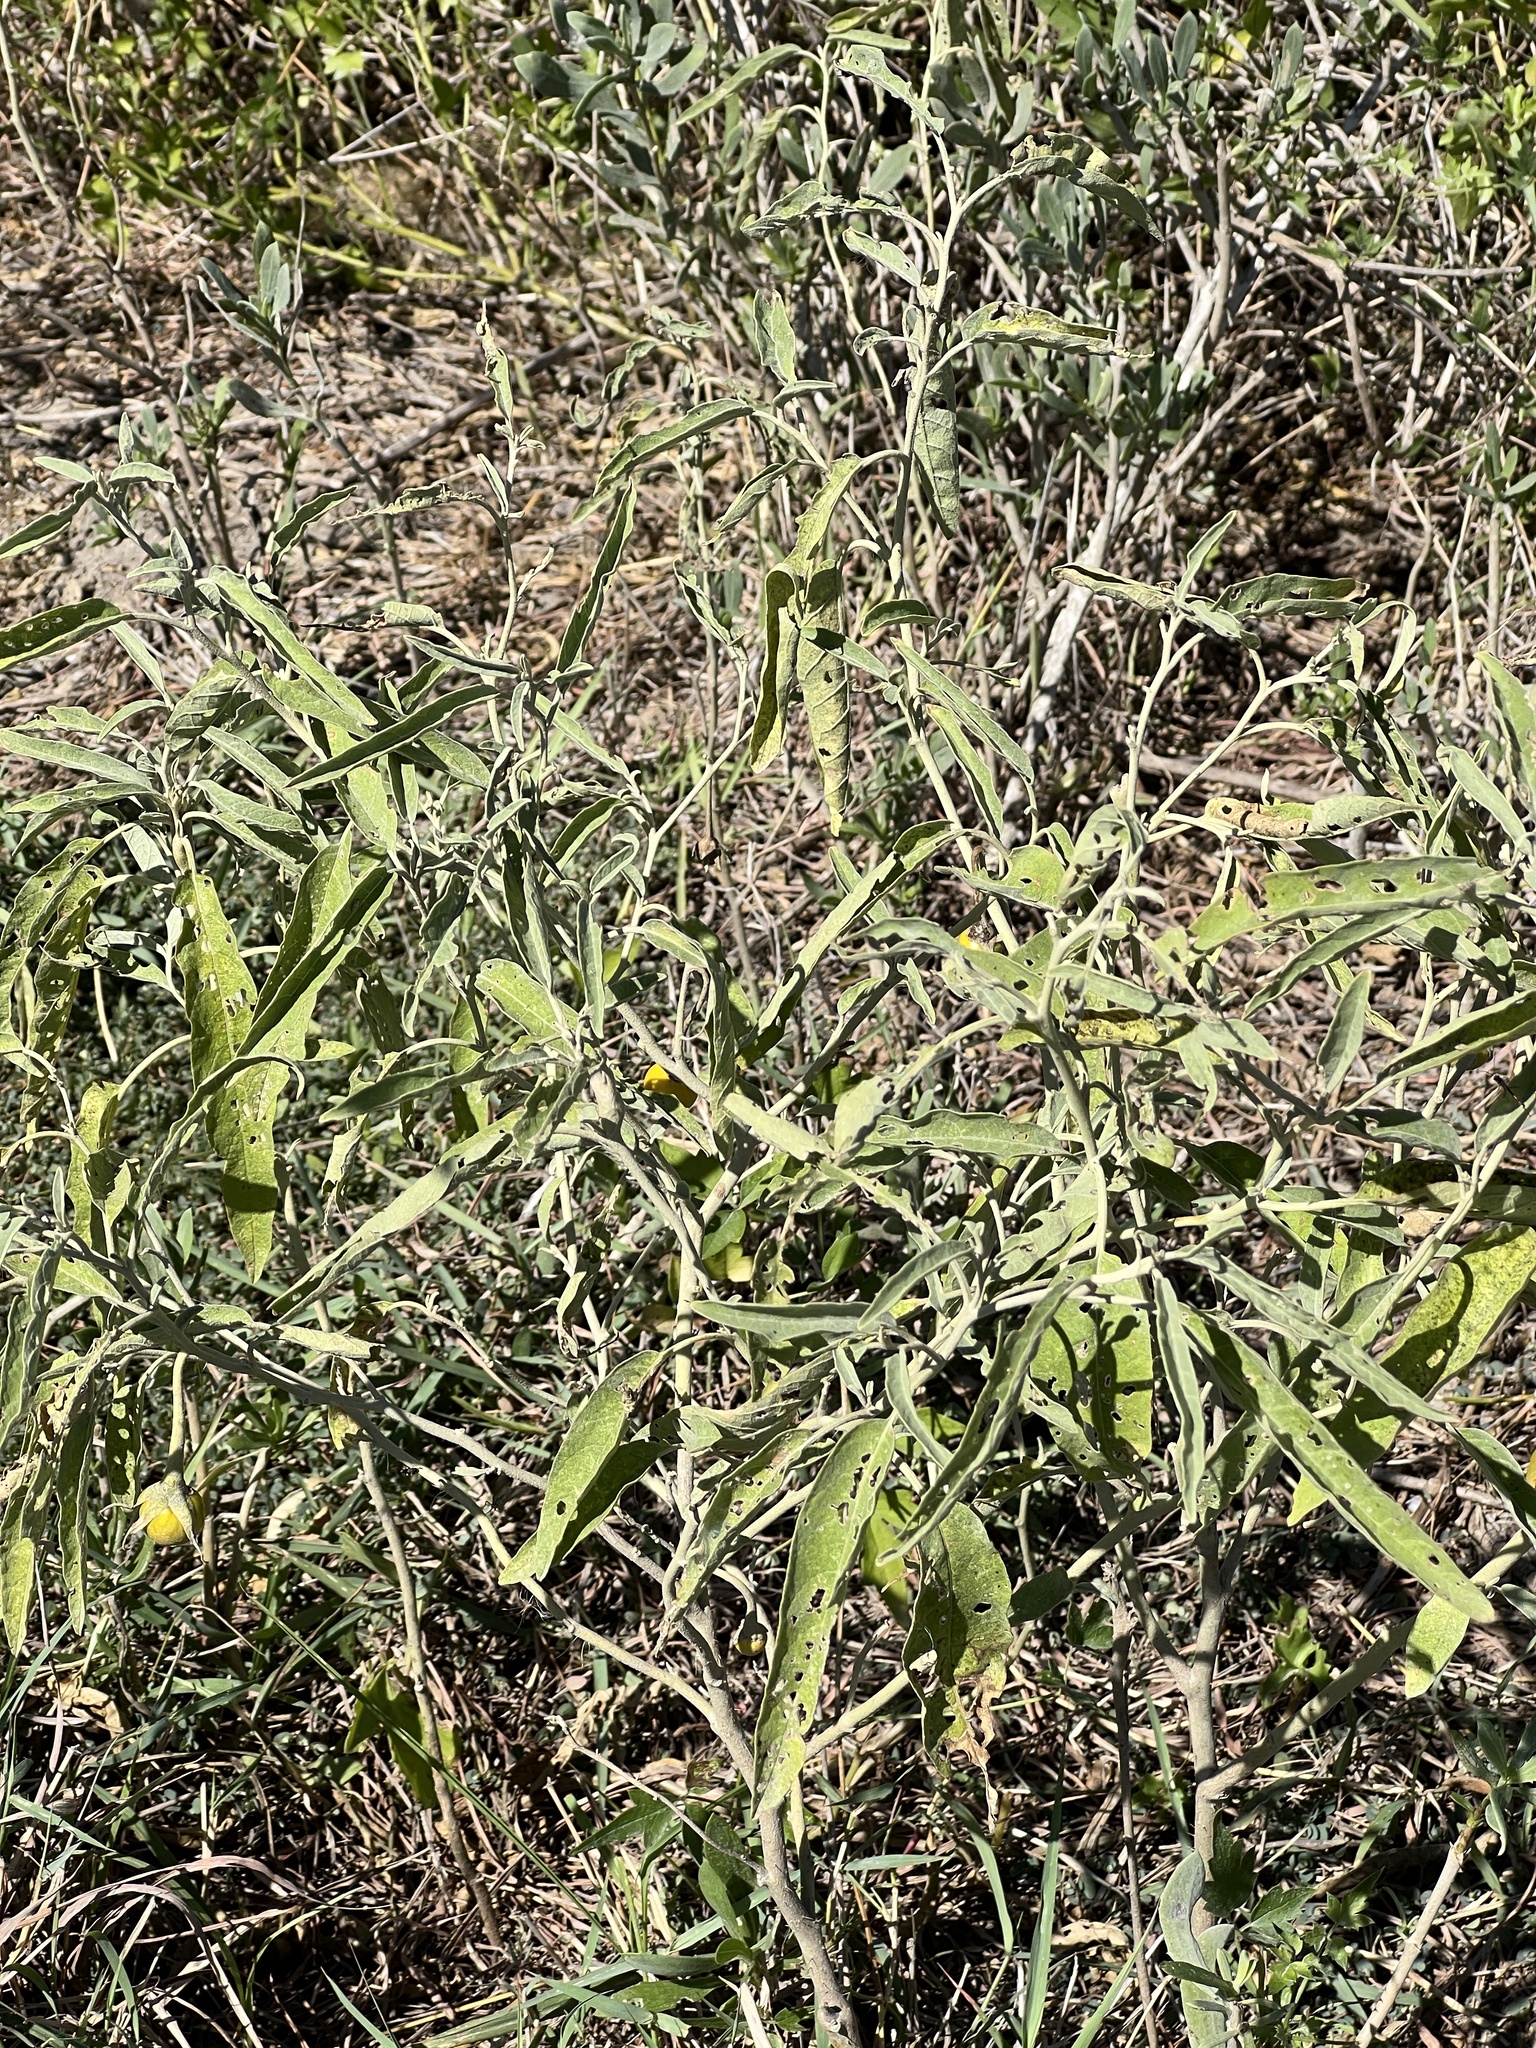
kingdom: Plantae
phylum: Tracheophyta
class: Magnoliopsida
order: Solanales
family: Solanaceae
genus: Solanum
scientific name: Solanum elaeagnifolium
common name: Silverleaf nightshade
